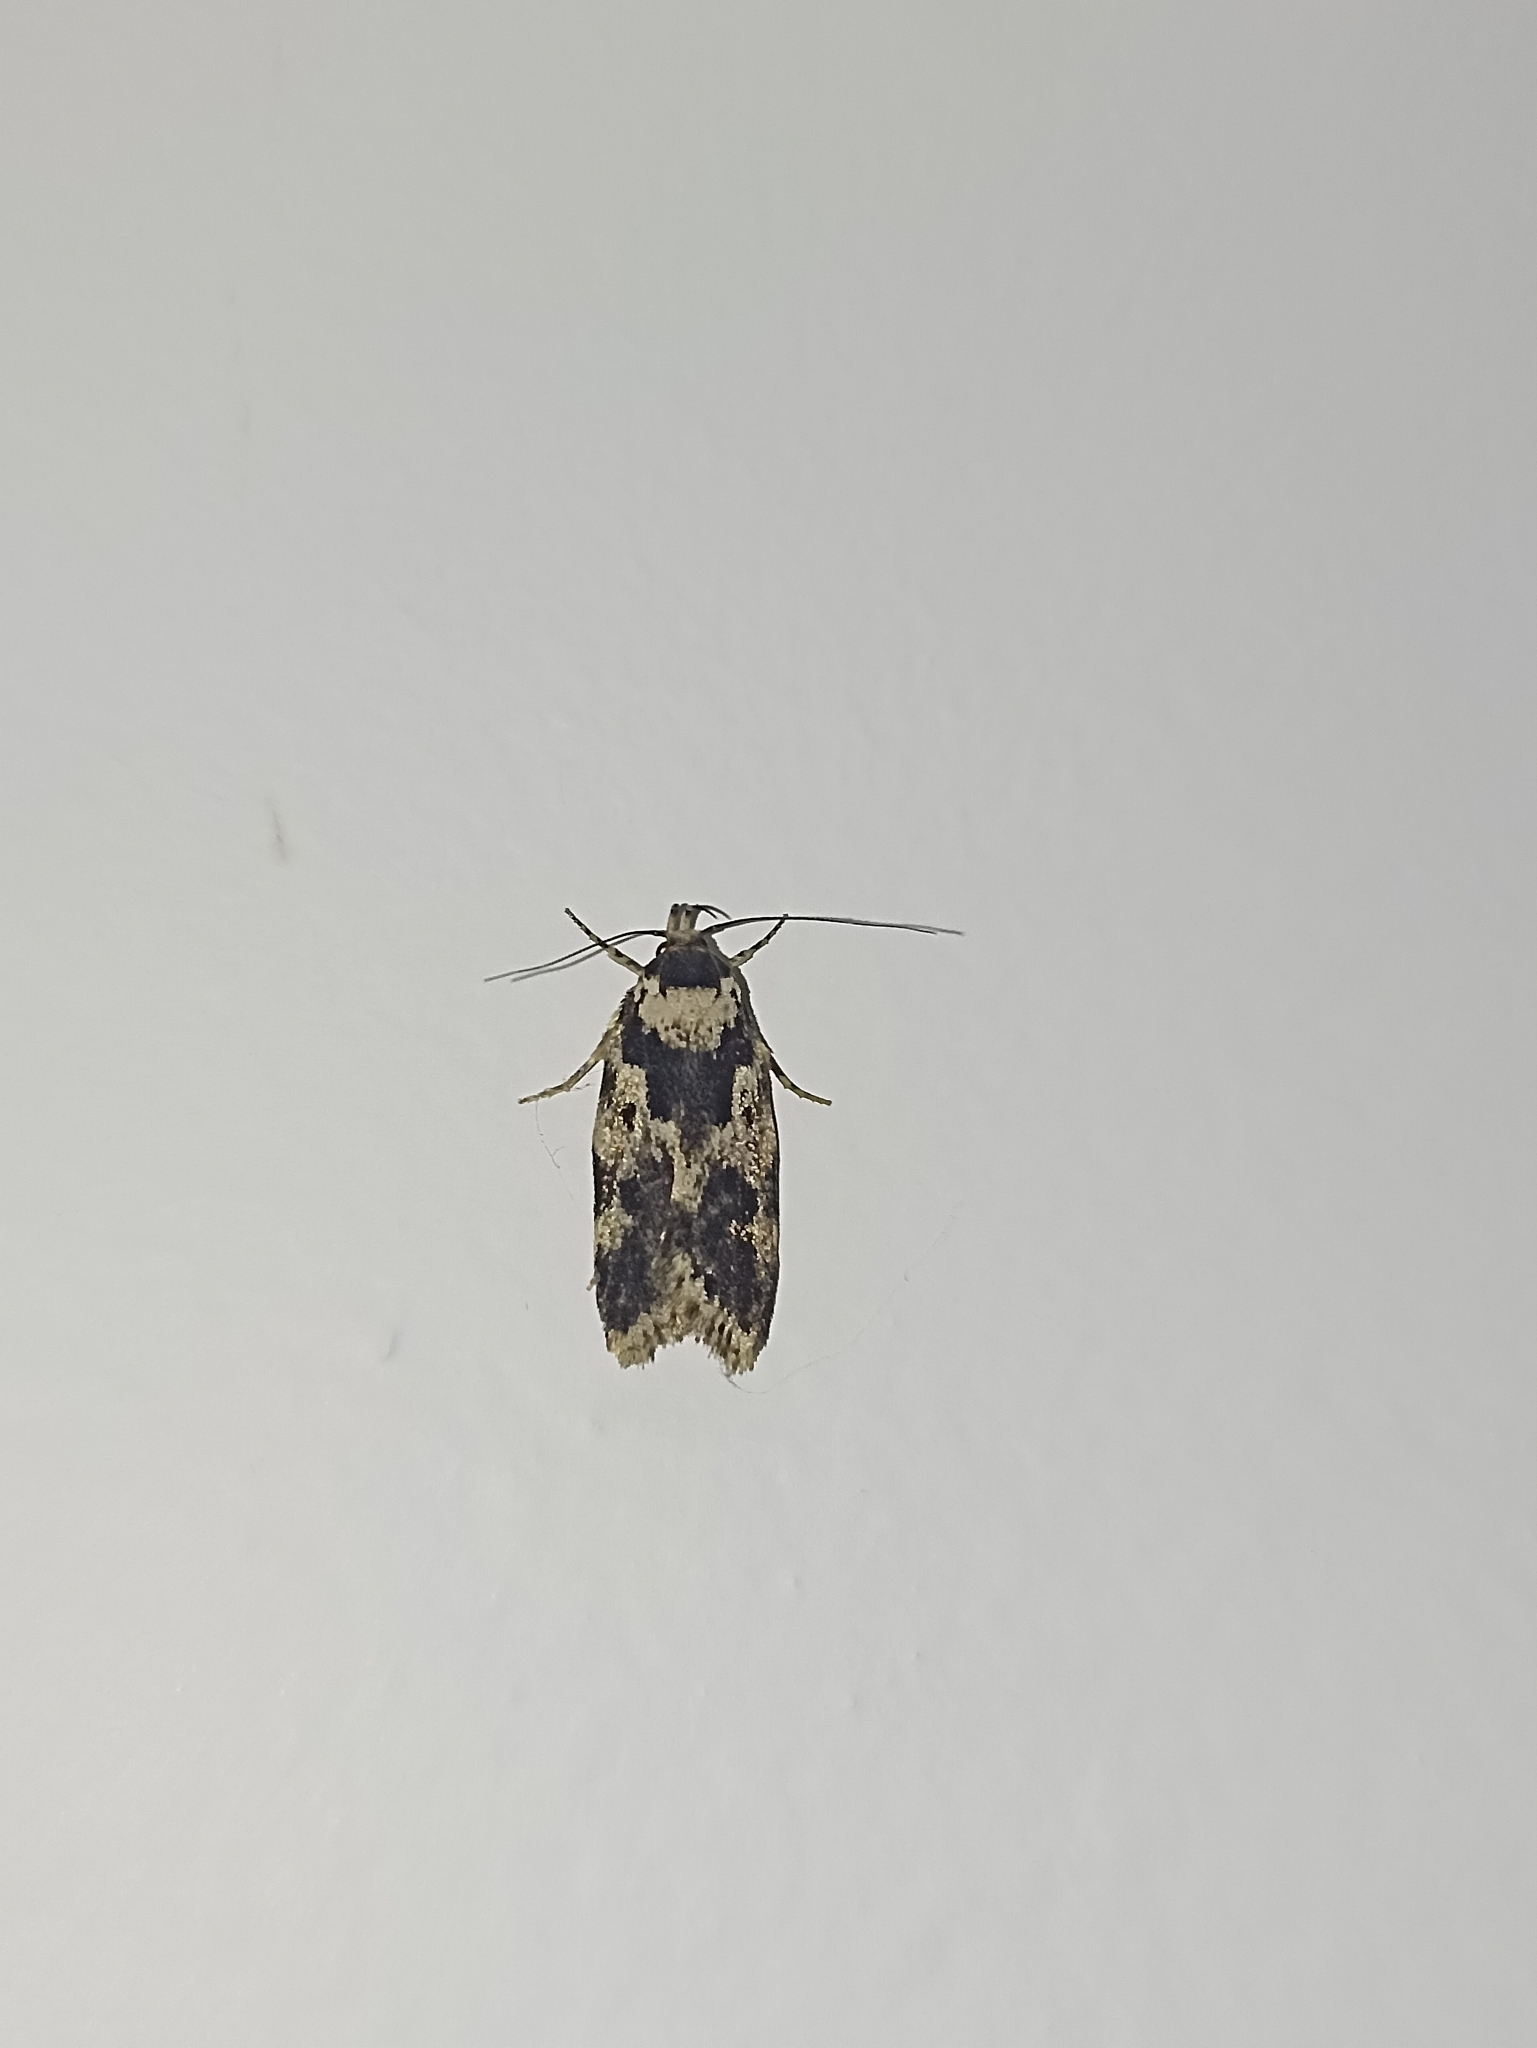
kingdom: Animalia
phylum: Arthropoda
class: Insecta
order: Lepidoptera
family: Oecophoridae
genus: Barea
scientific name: Barea confusella
